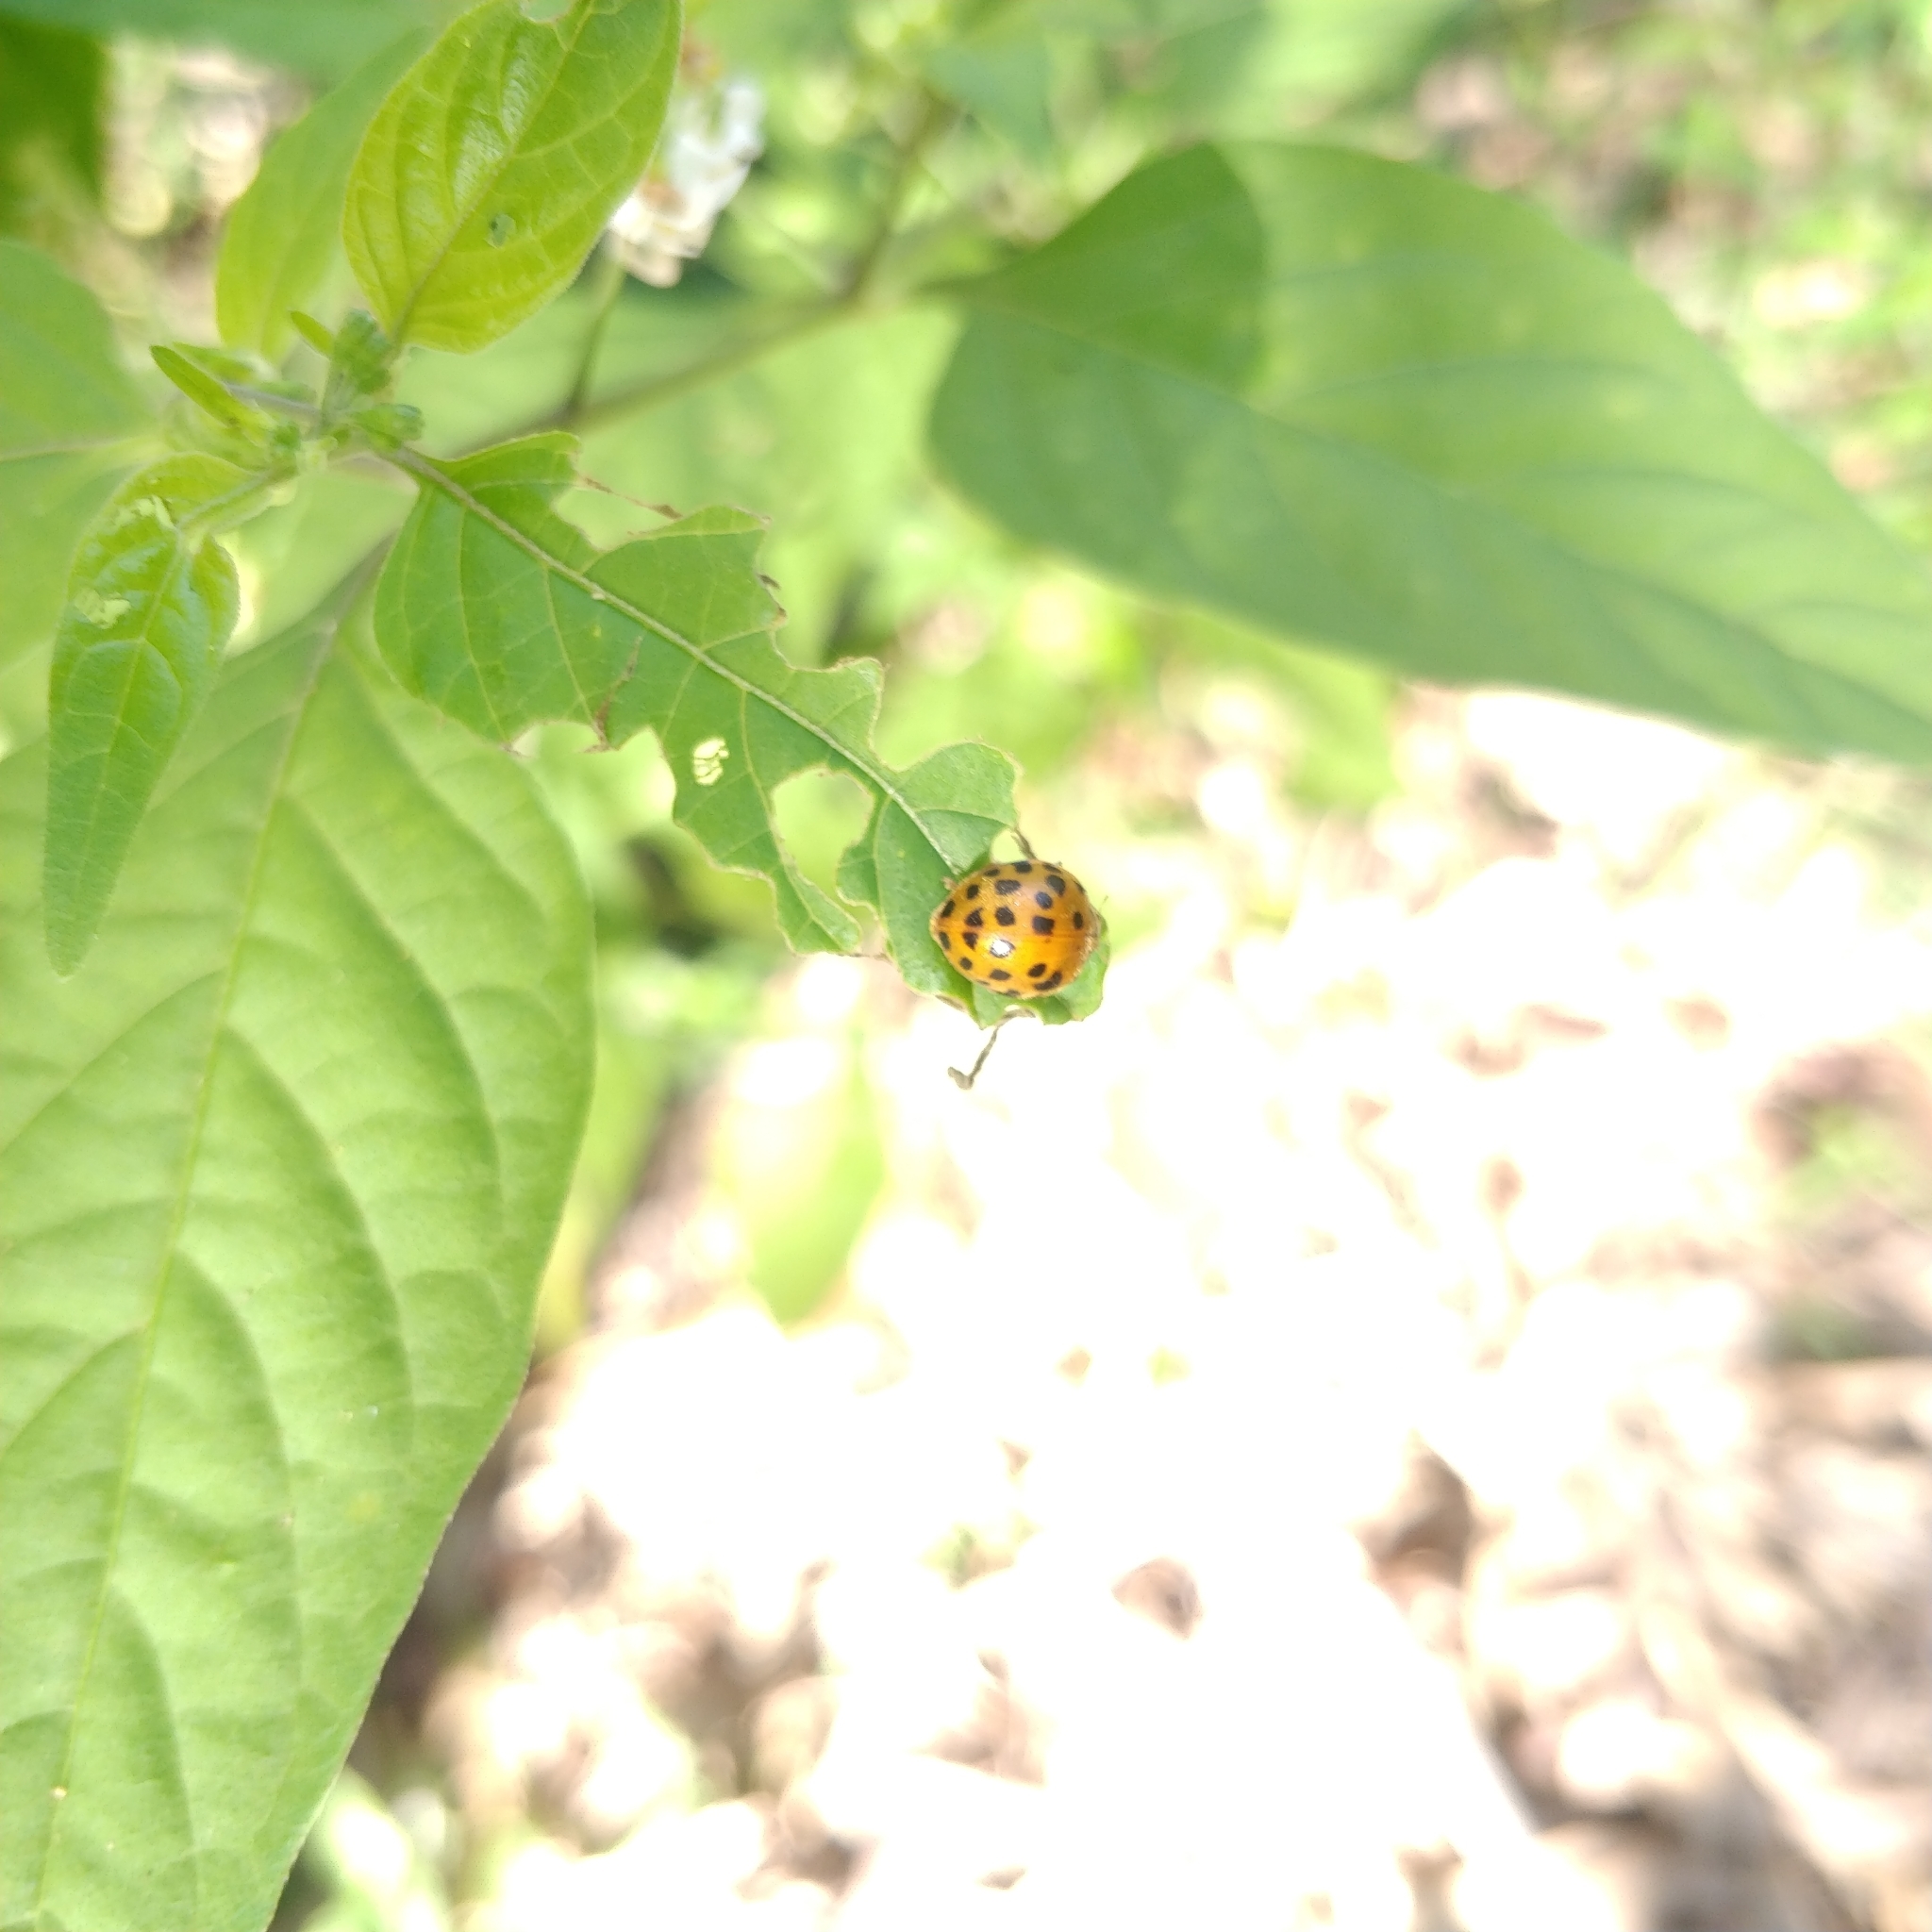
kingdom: Animalia
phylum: Arthropoda
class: Insecta
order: Coleoptera
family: Coccinellidae
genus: Henosepilachna
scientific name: Henosepilachna vigintioctopunctata
